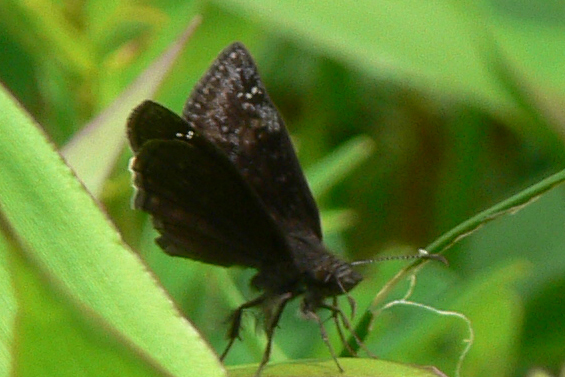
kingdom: Animalia
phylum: Arthropoda
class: Insecta
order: Lepidoptera
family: Hesperiidae
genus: Erynnis
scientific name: Erynnis baptisiae
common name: Wild indigo duskywing
